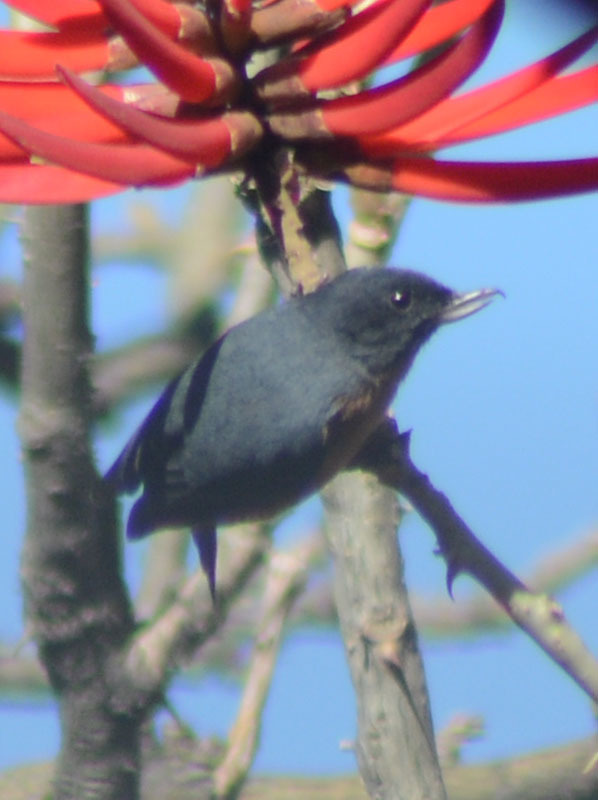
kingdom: Animalia
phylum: Chordata
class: Aves
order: Passeriformes
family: Thraupidae
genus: Diglossa
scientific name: Diglossa baritula
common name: Cinnamon-bellied flowerpiercer
